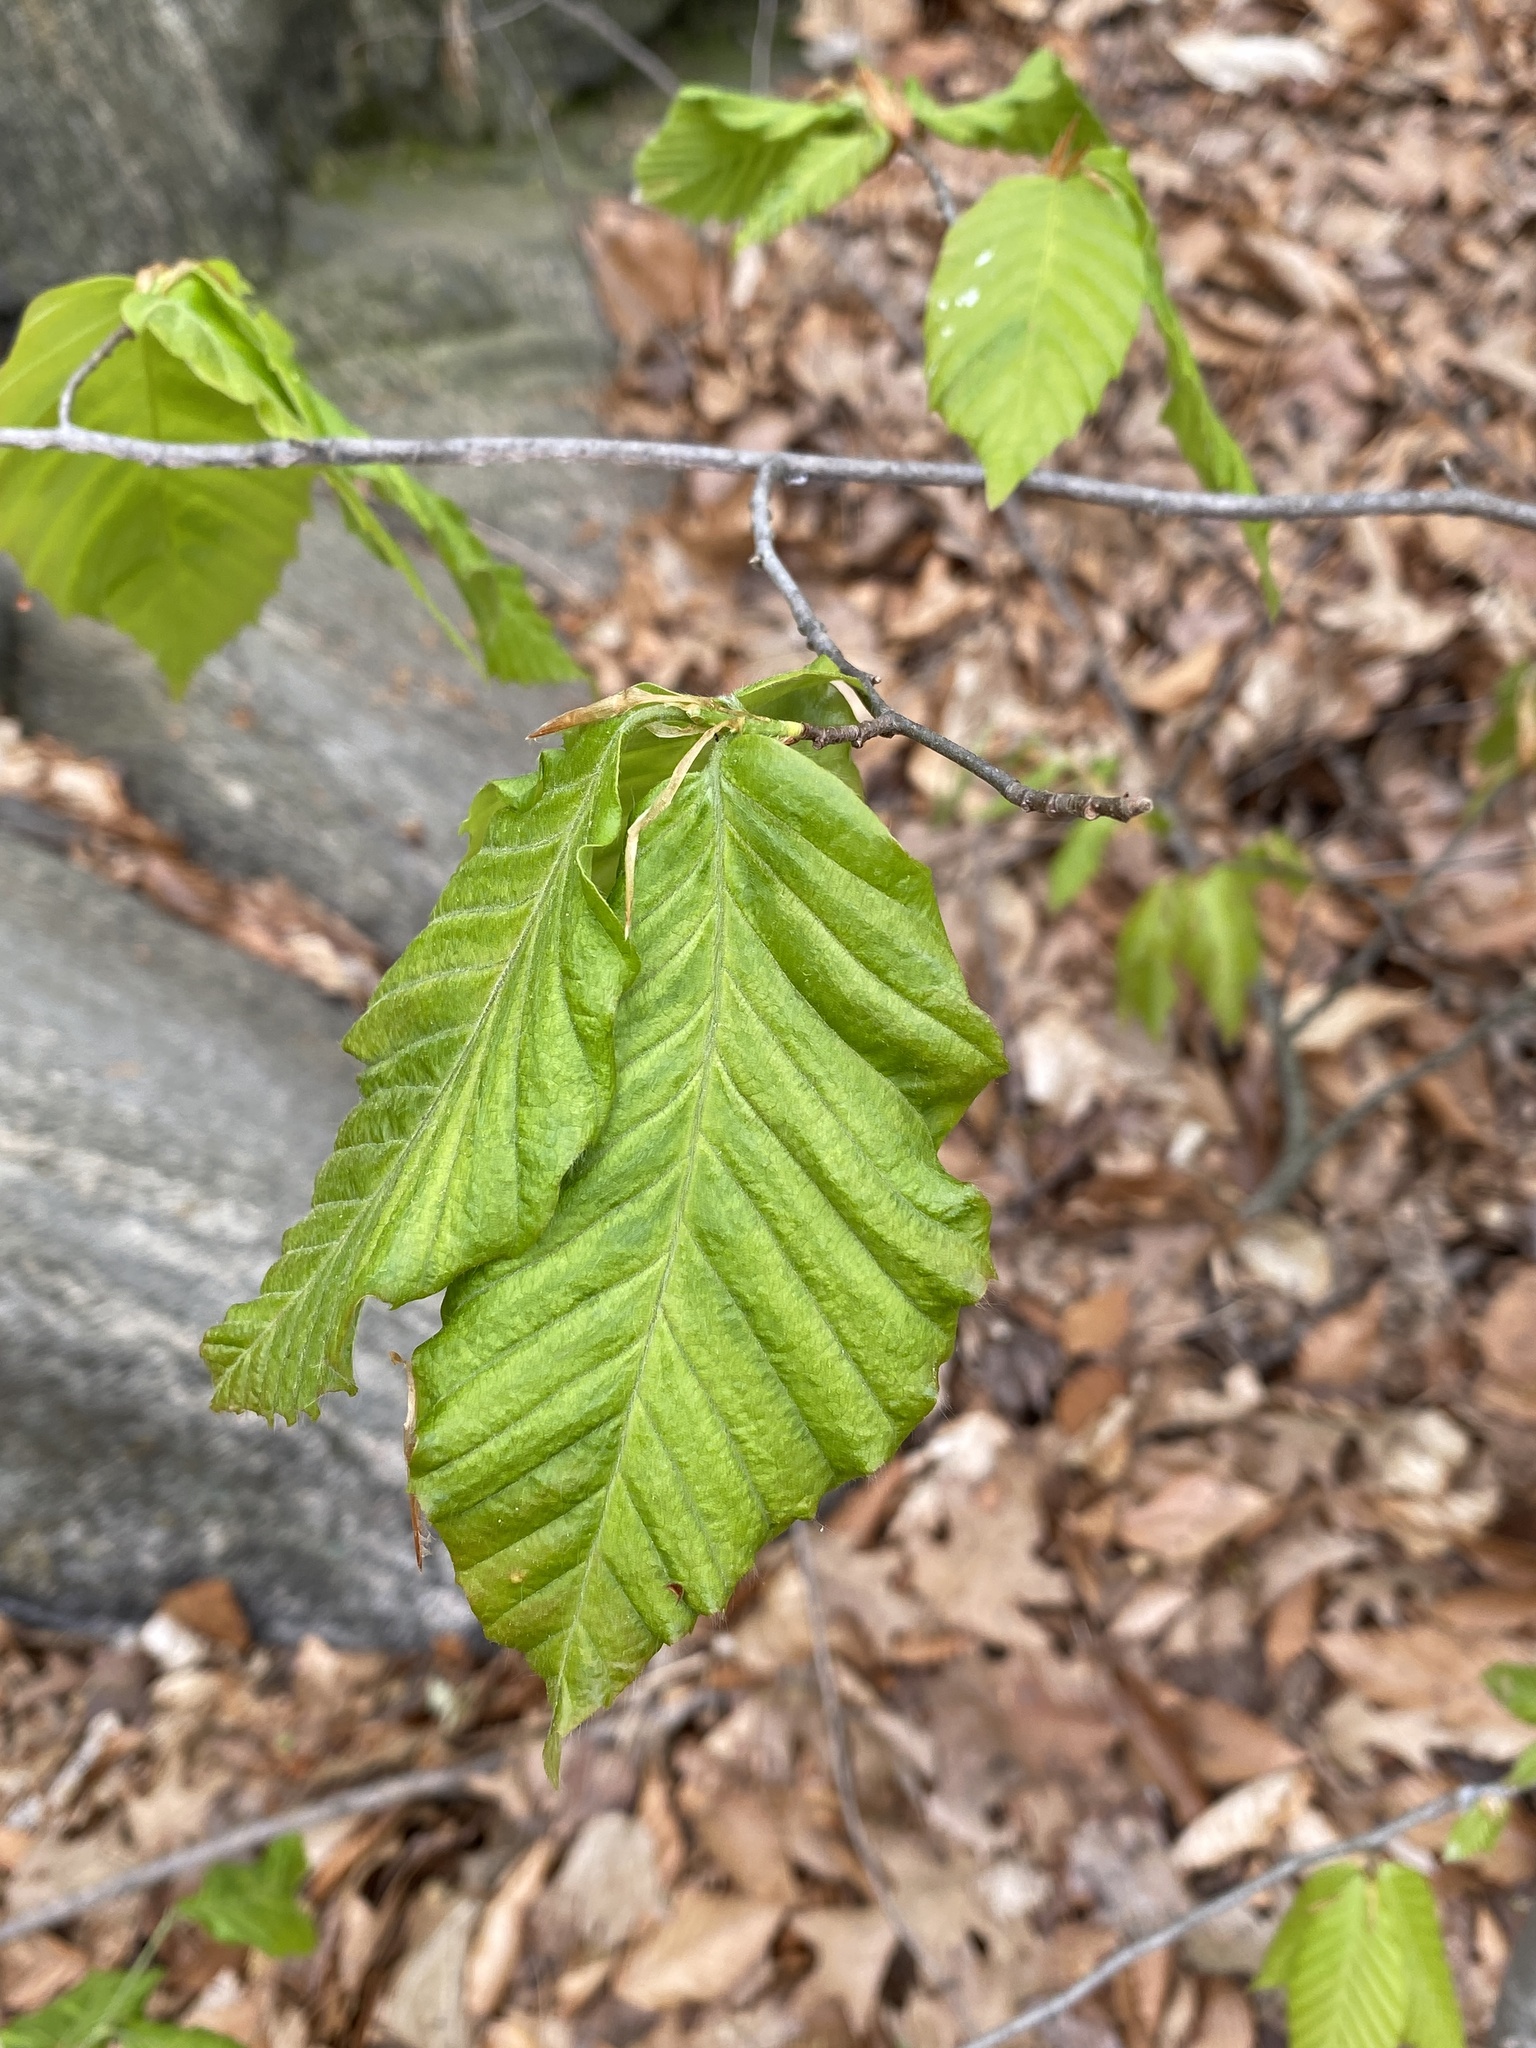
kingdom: Plantae
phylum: Tracheophyta
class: Magnoliopsida
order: Fagales
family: Fagaceae
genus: Fagus
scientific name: Fagus grandifolia
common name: American beech
